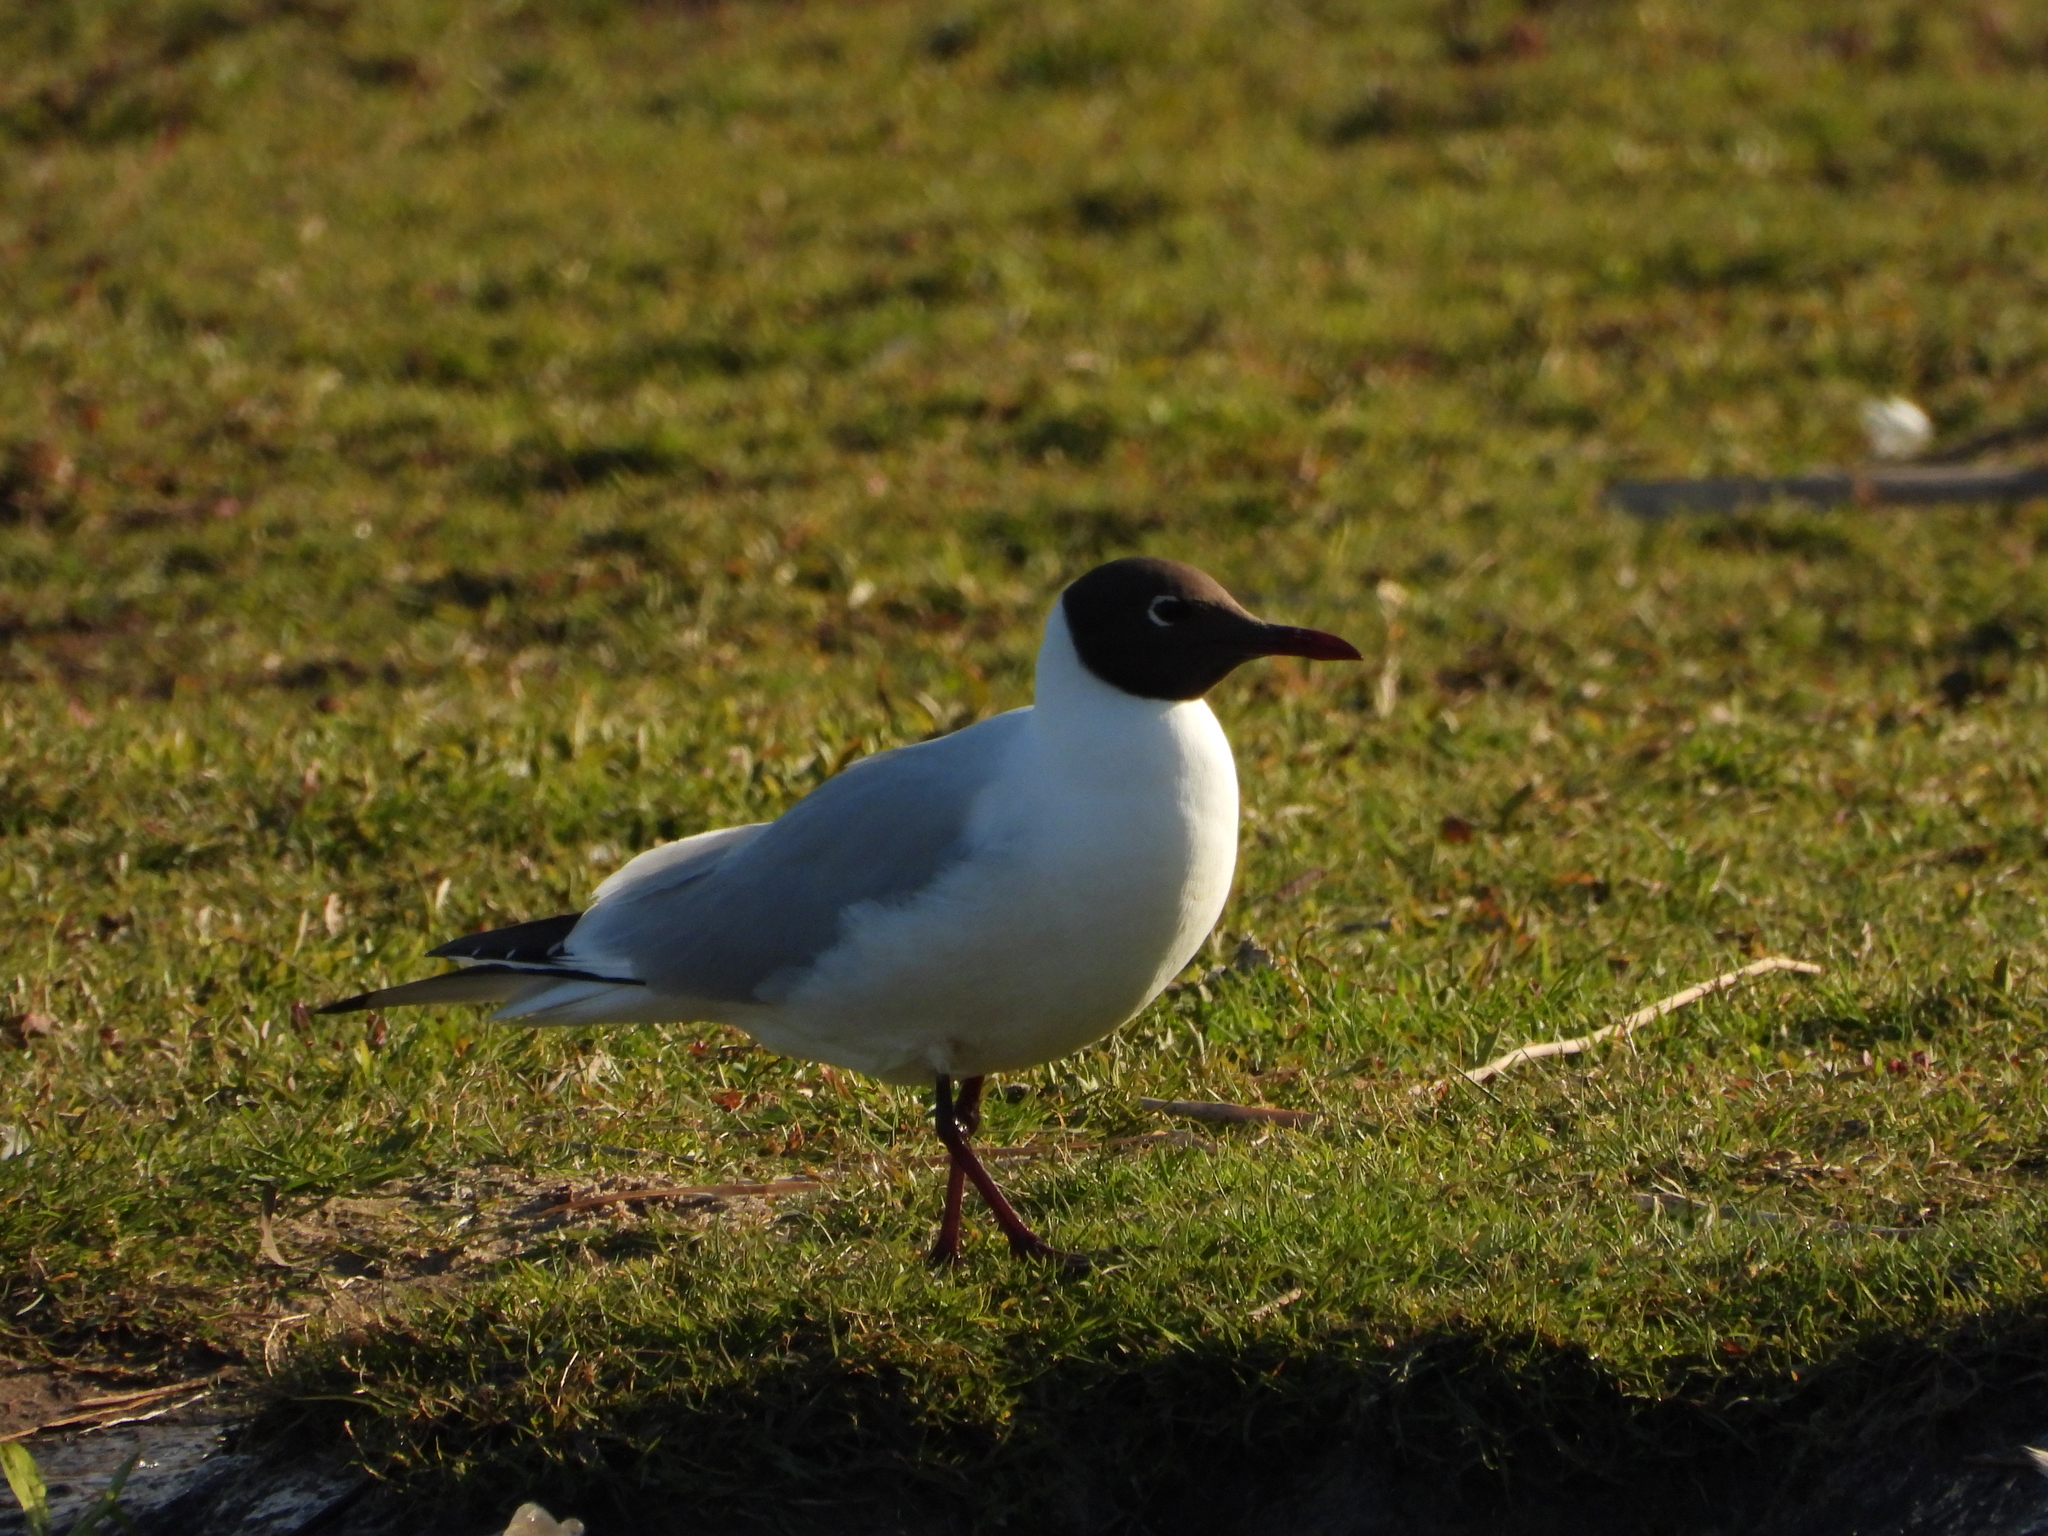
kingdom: Animalia
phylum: Chordata
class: Aves
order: Charadriiformes
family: Laridae
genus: Chroicocephalus
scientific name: Chroicocephalus ridibundus
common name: Black-headed gull
